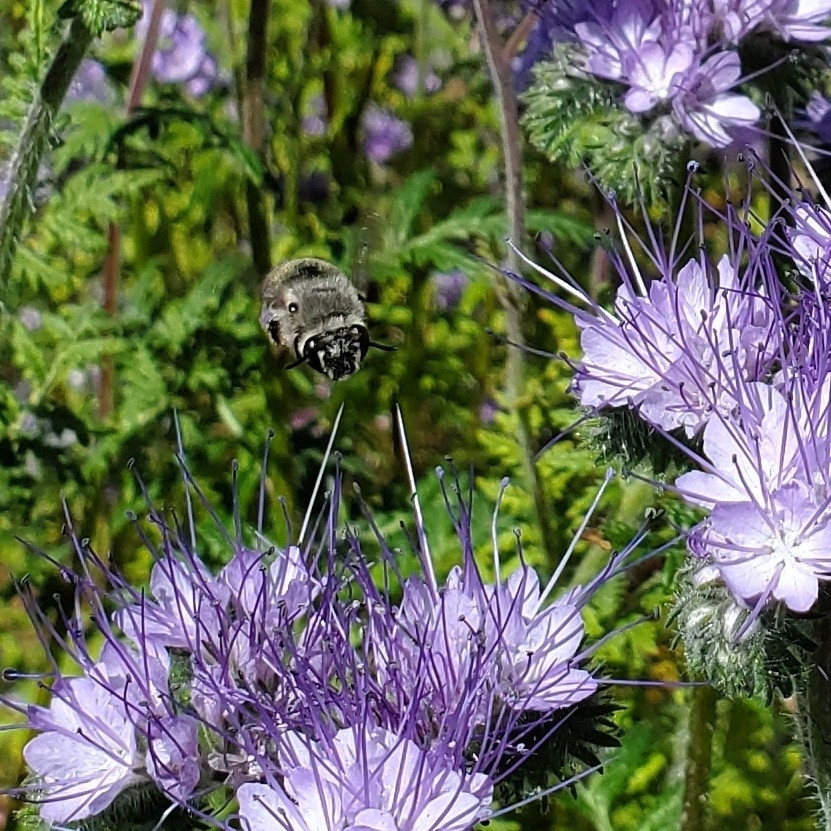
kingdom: Animalia
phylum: Arthropoda
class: Insecta
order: Hymenoptera
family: Apidae
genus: Habropoda
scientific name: Habropoda depressa
